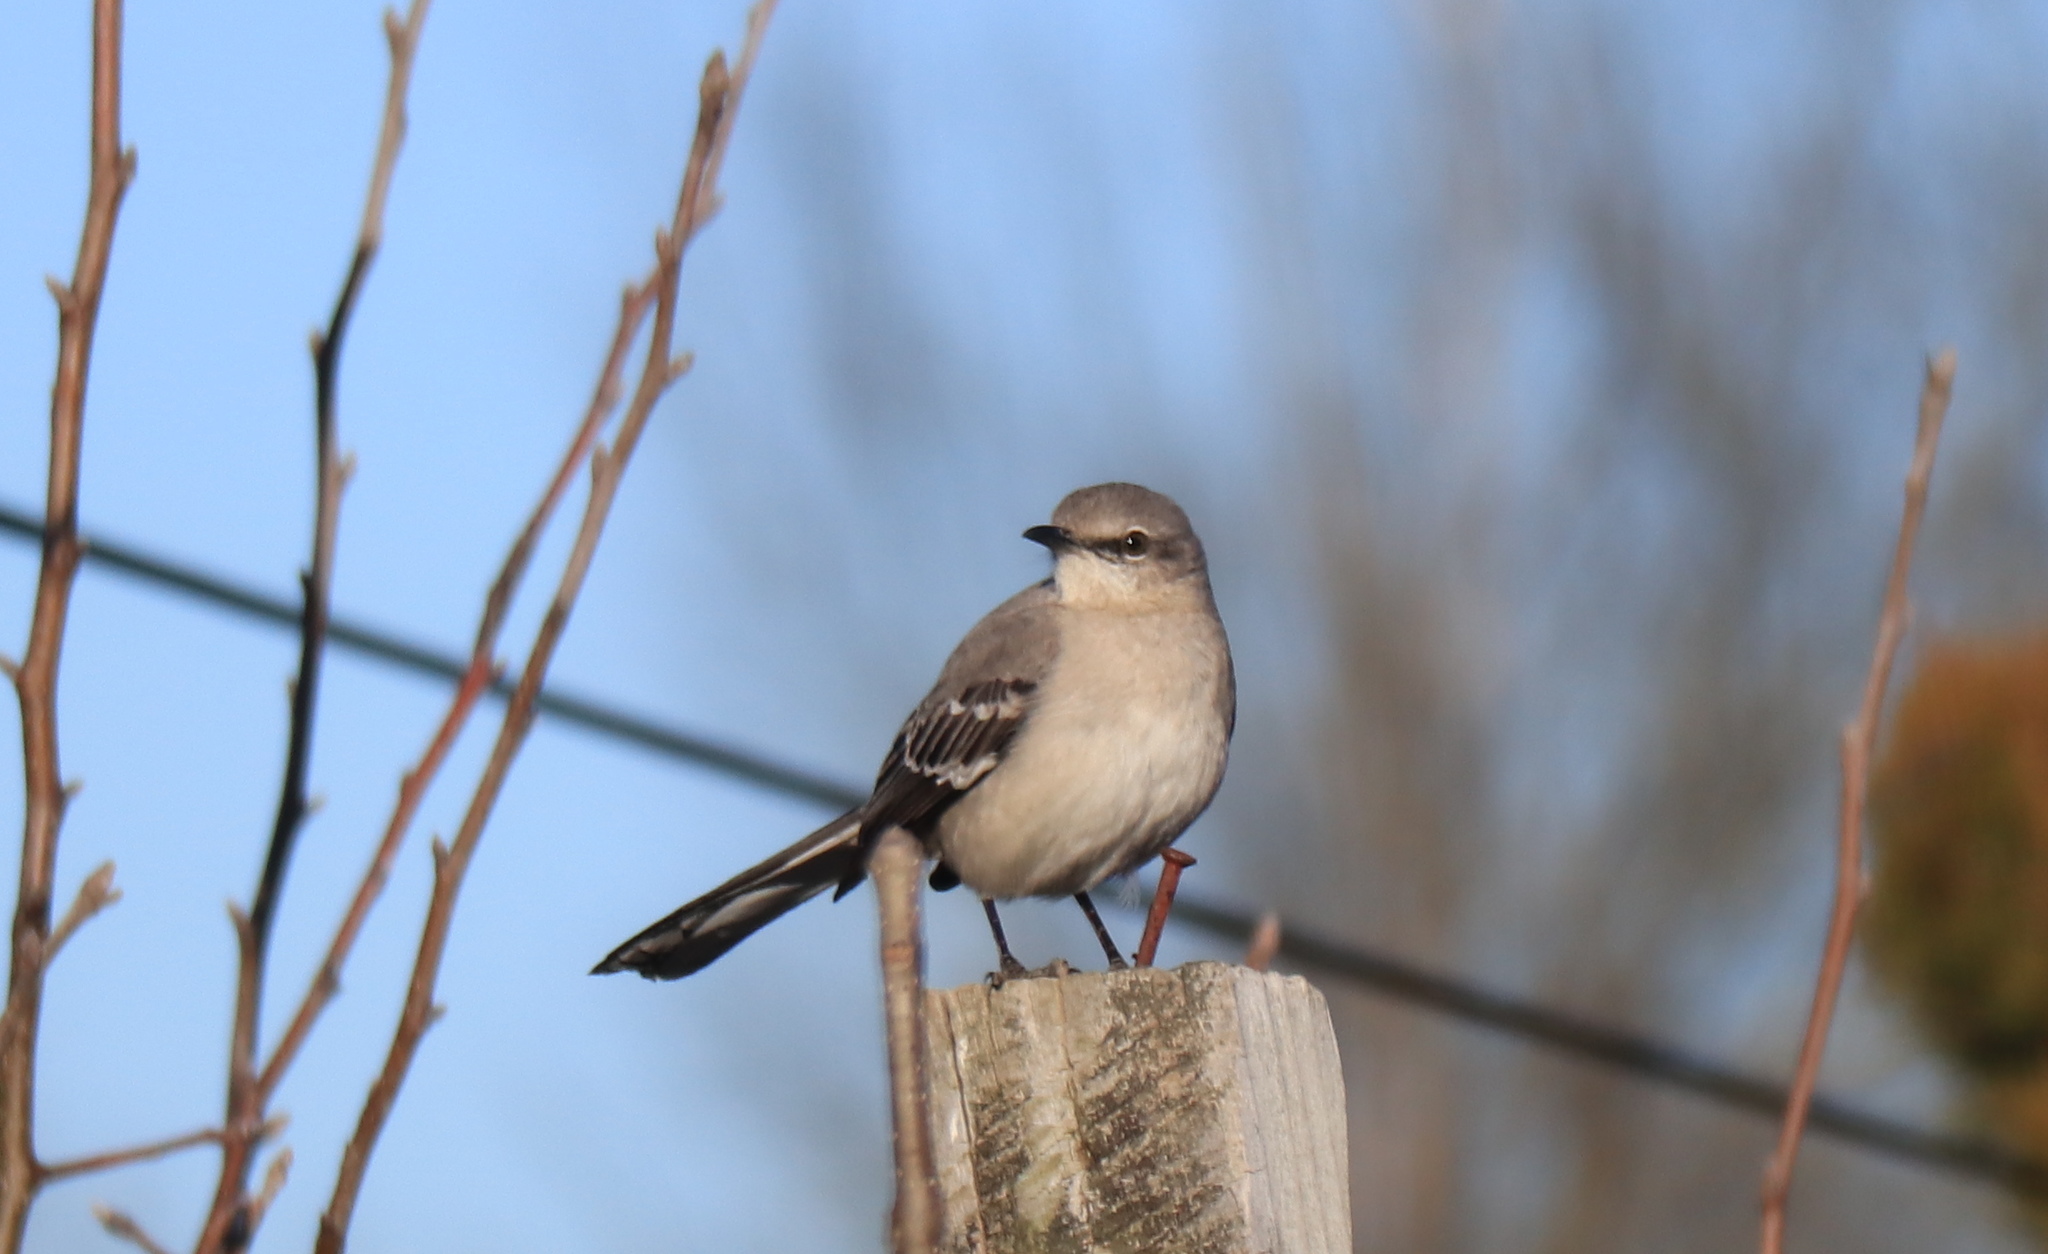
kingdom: Animalia
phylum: Chordata
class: Aves
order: Passeriformes
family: Mimidae
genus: Mimus
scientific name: Mimus polyglottos
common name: Northern mockingbird
